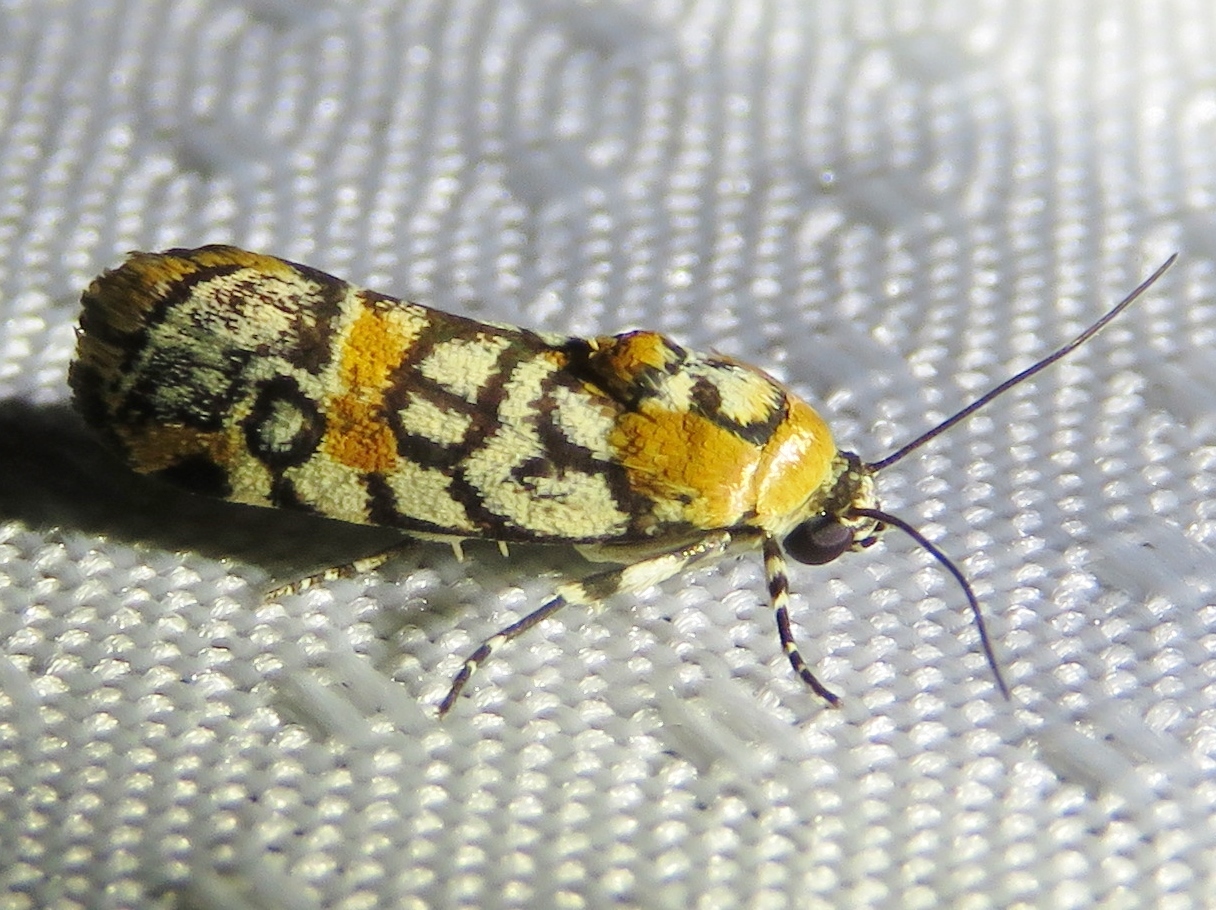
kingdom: Animalia
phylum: Arthropoda
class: Insecta
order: Lepidoptera
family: Noctuidae
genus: Spragueia
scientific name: Spragueia guttata
